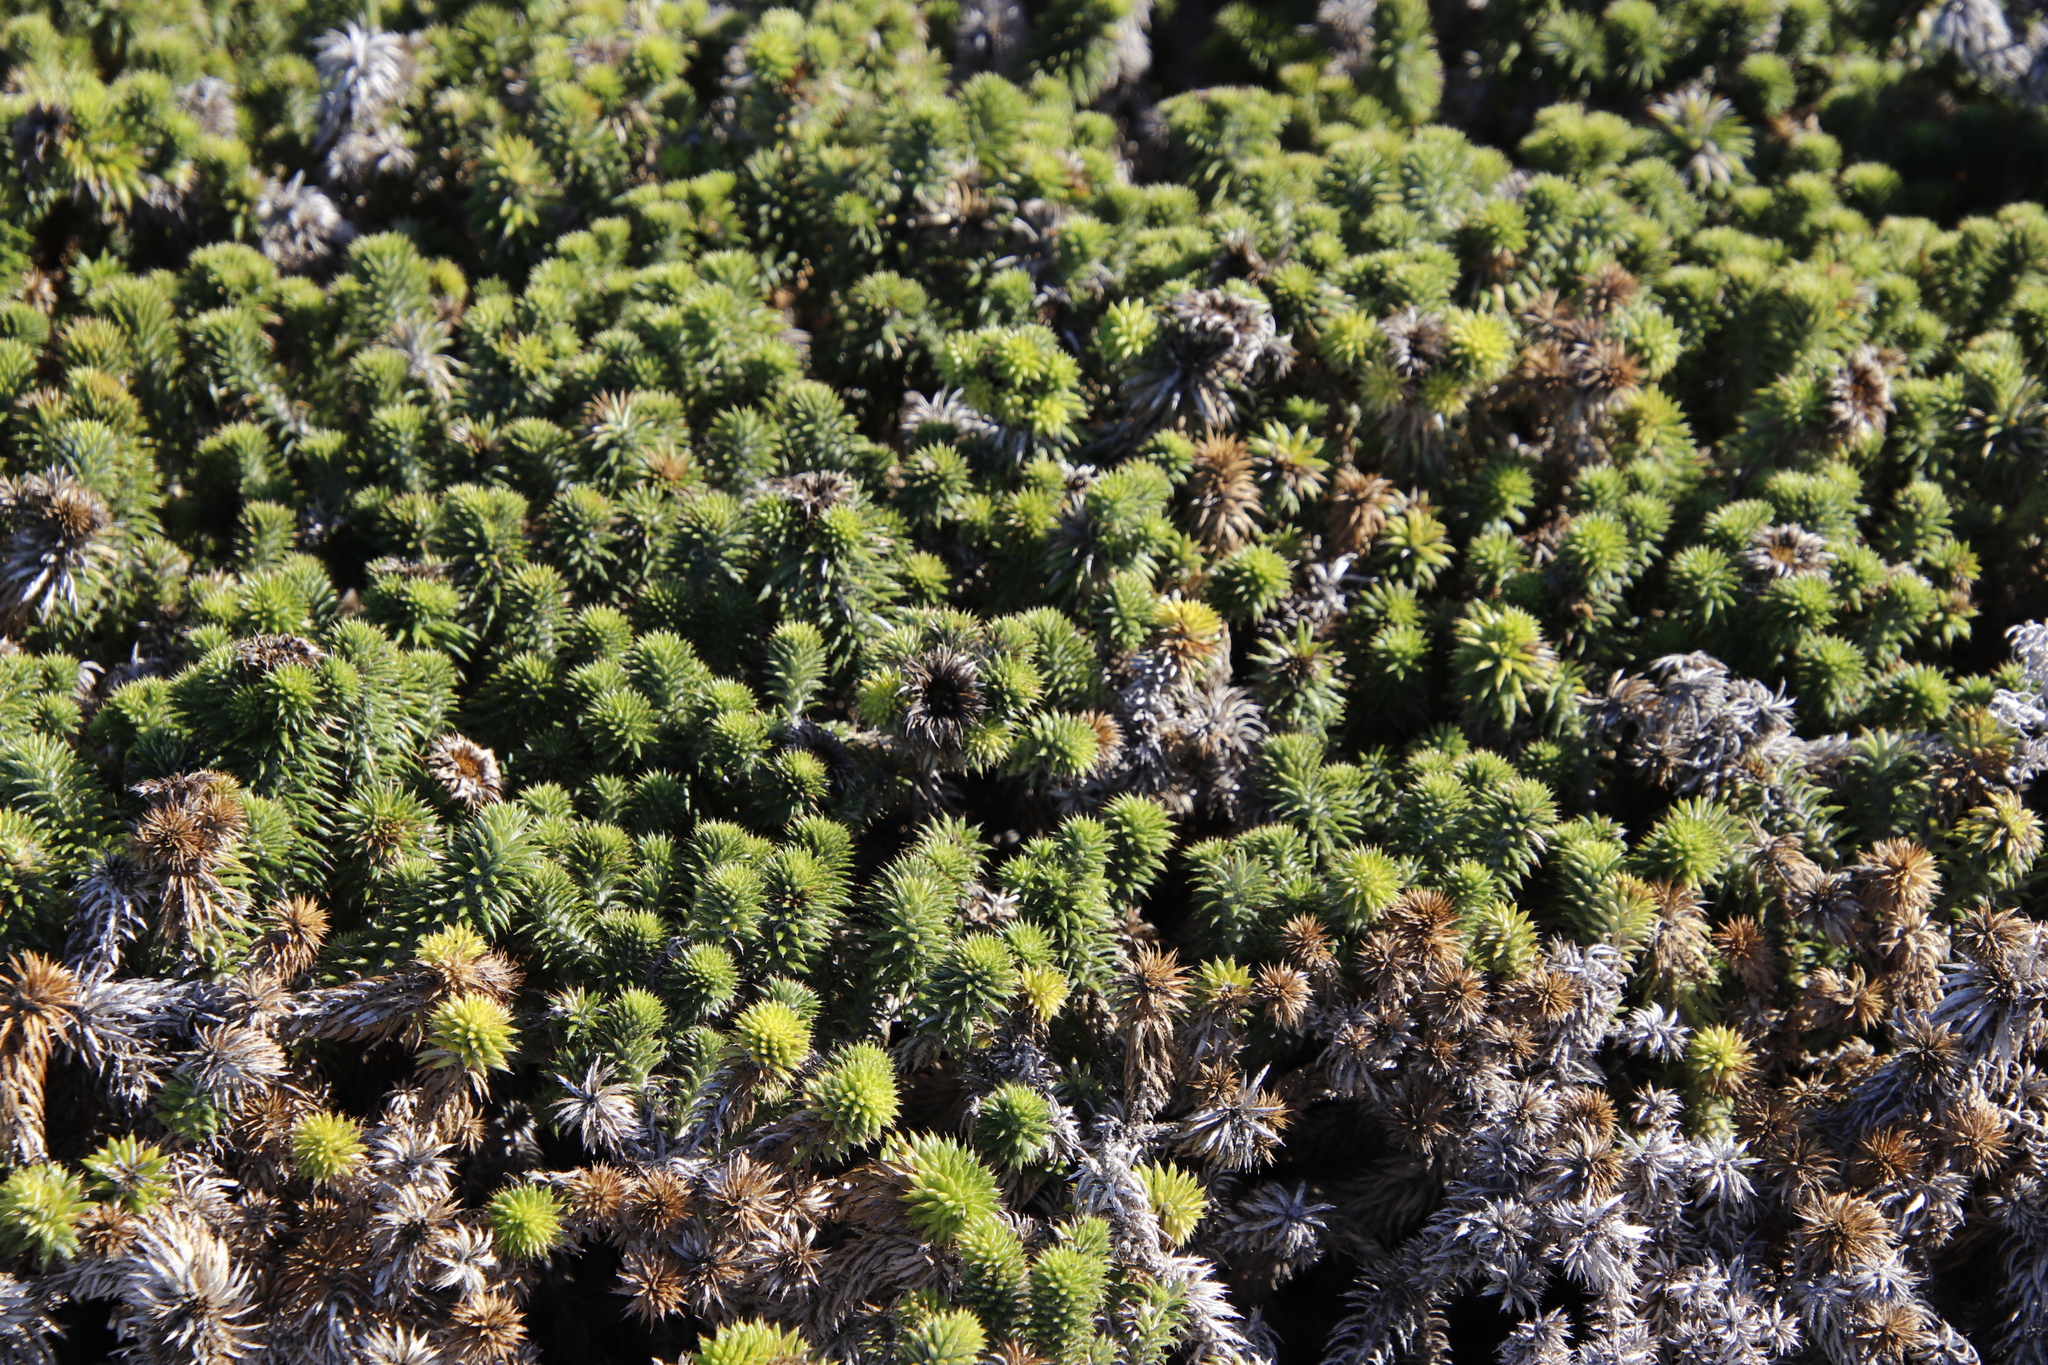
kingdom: Plantae
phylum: Tracheophyta
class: Magnoliopsida
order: Asterales
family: Asteraceae
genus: Cullumia
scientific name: Cullumia squarrosa
